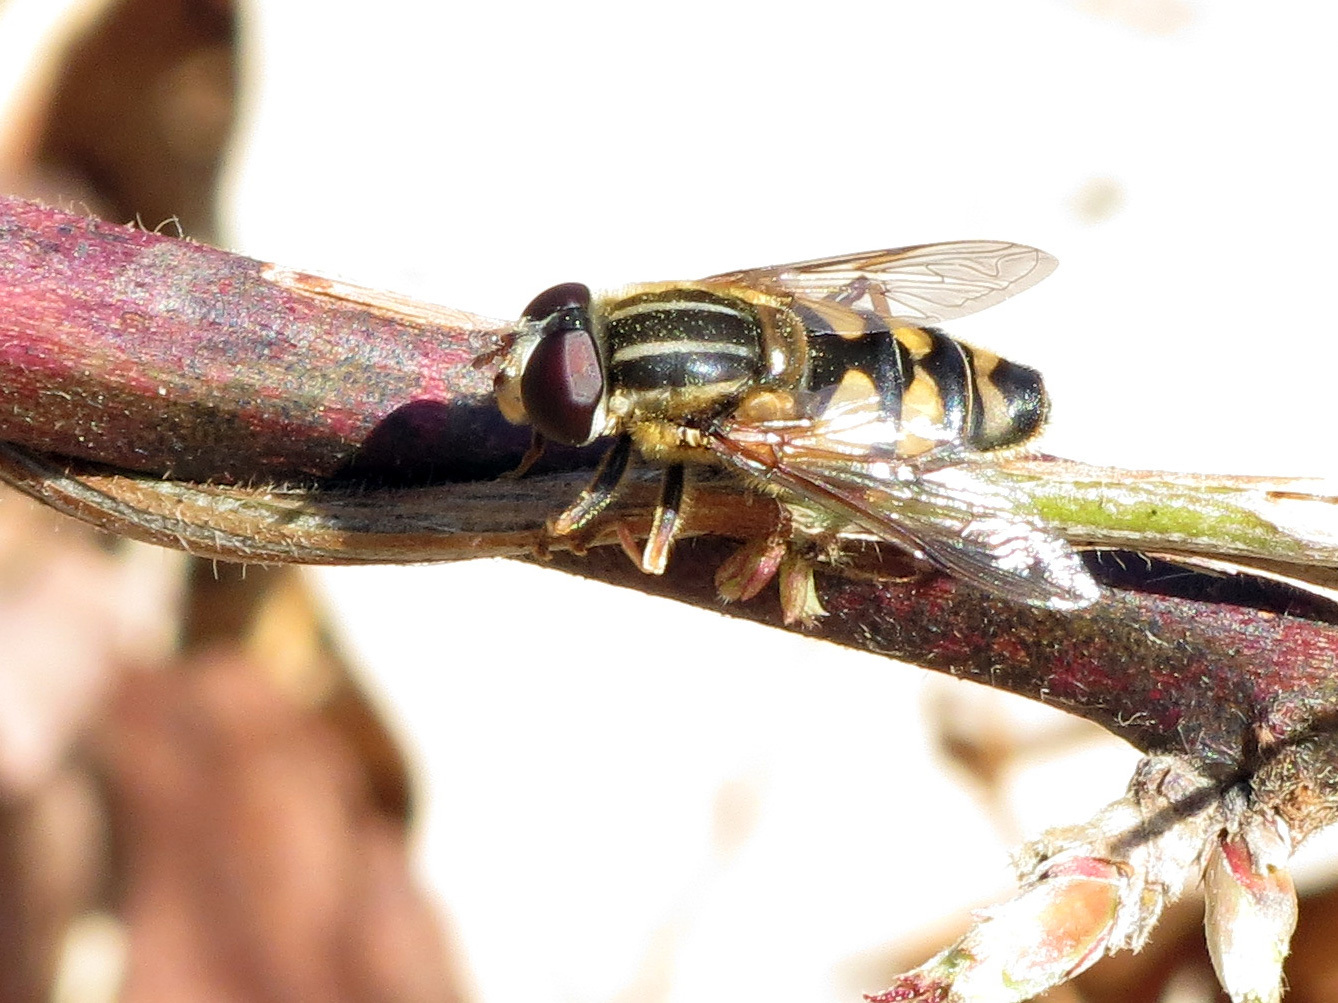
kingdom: Animalia
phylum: Arthropoda
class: Insecta
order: Diptera
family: Syrphidae
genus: Helophilus
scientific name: Helophilus fasciatus
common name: Narrow-headed marsh fly
